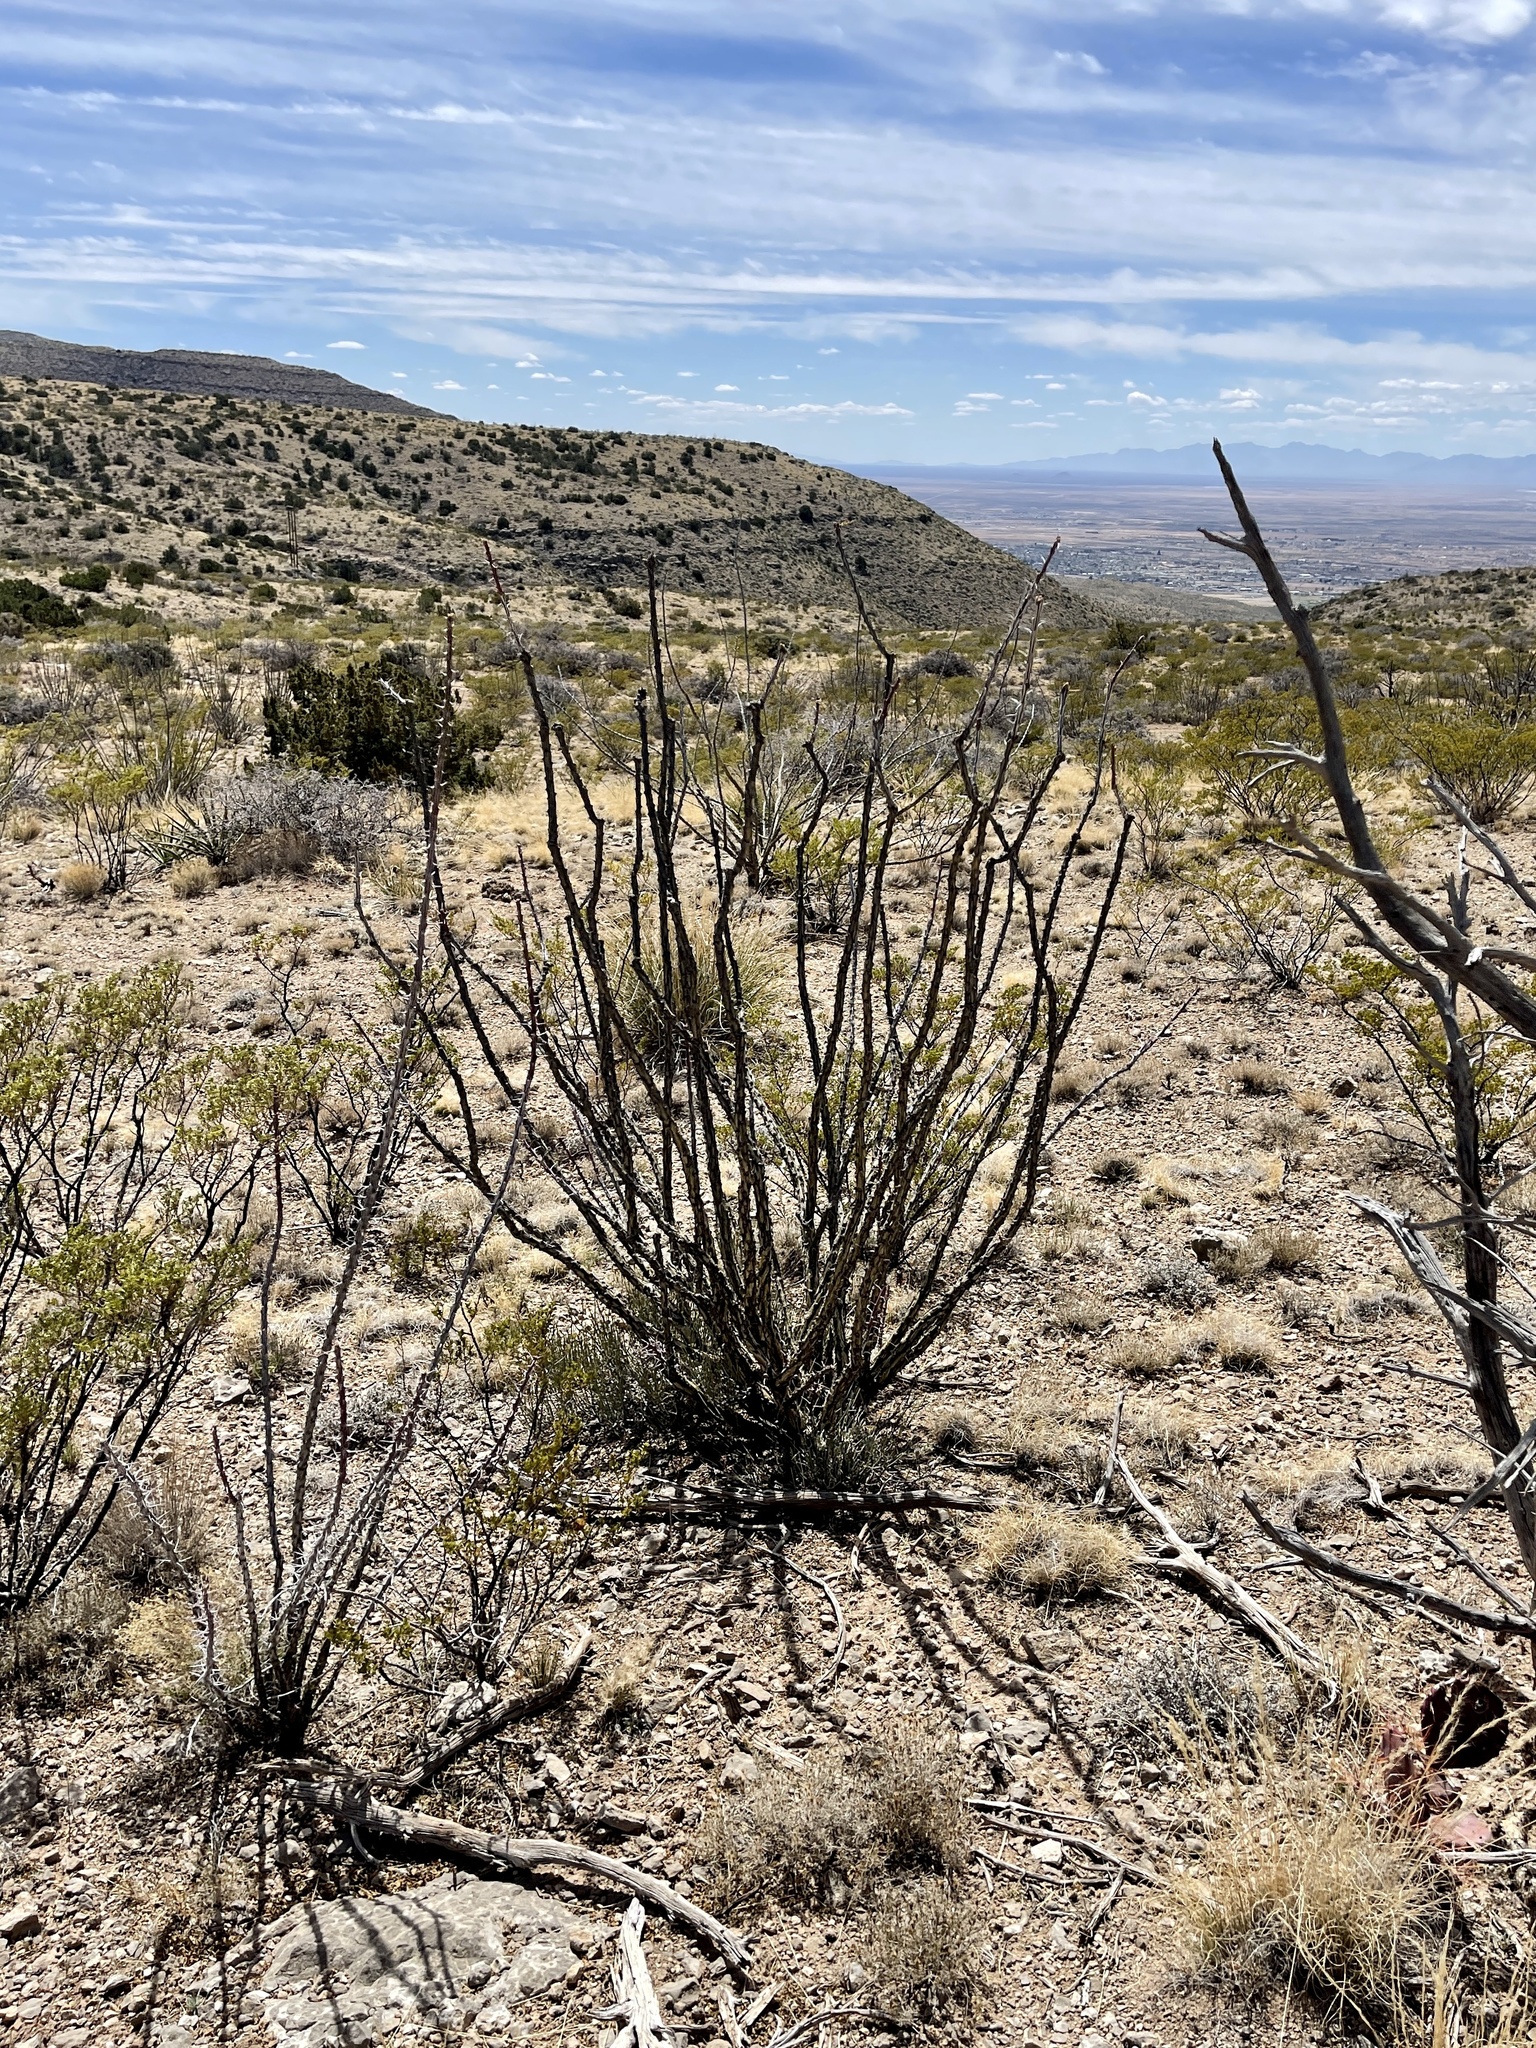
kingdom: Plantae
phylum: Tracheophyta
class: Magnoliopsida
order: Ericales
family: Fouquieriaceae
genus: Fouquieria
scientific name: Fouquieria splendens
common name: Vine-cactus
